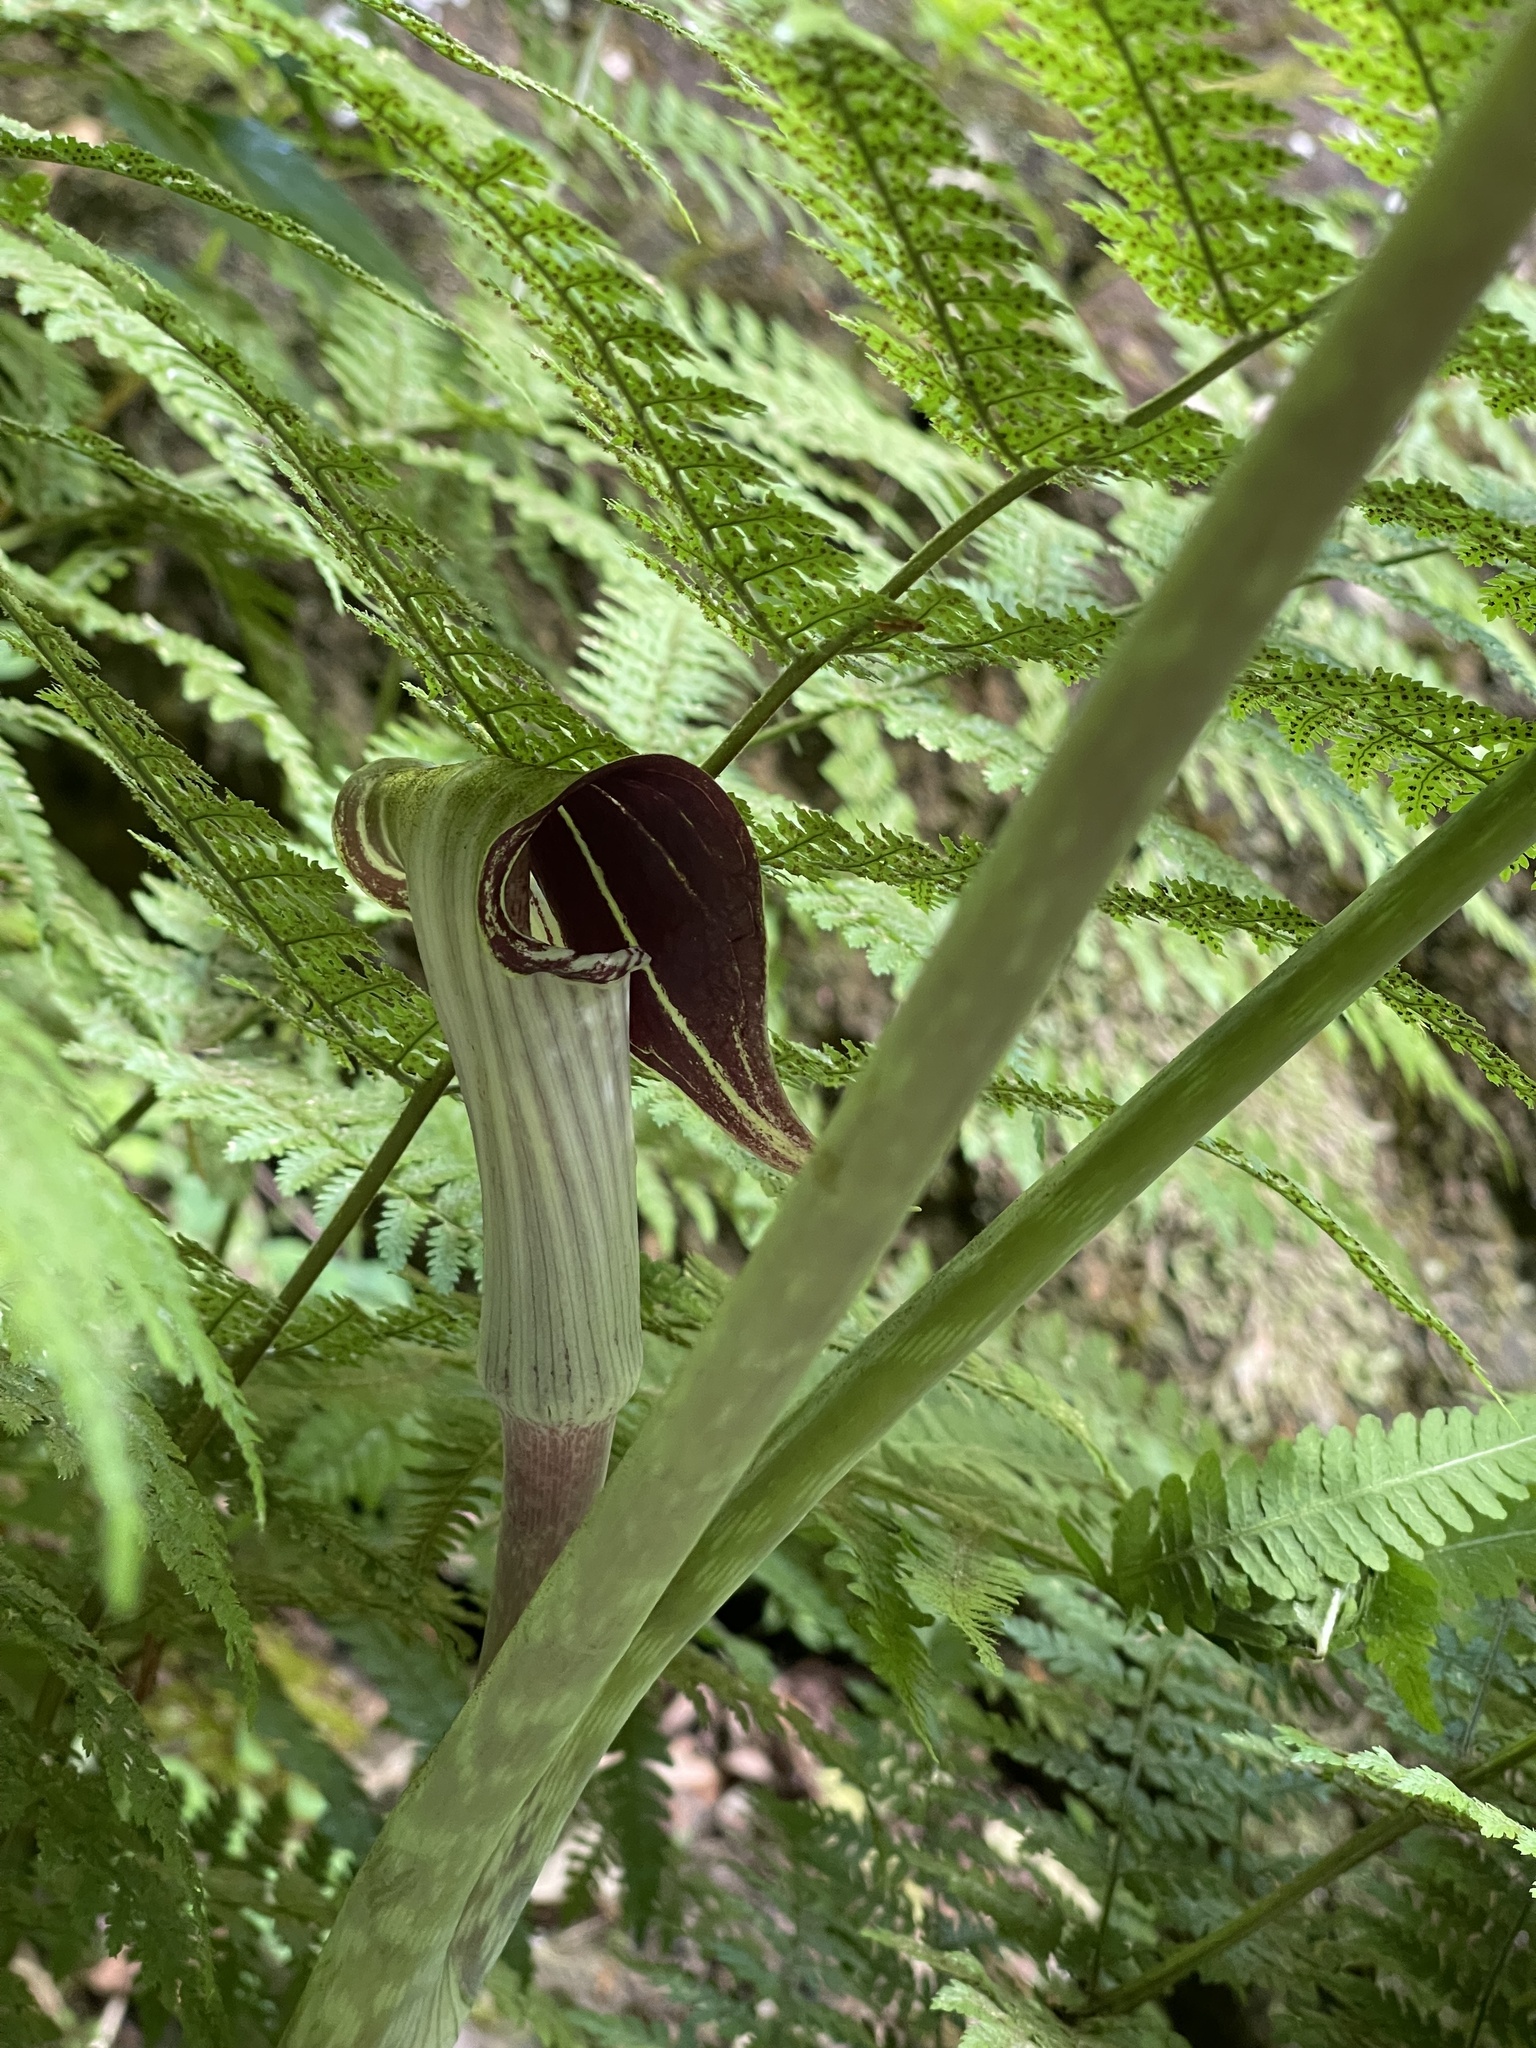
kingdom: Plantae
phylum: Tracheophyta
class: Liliopsida
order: Alismatales
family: Araceae
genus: Arisaema
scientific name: Arisaema triphyllum
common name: Jack-in-the-pulpit
